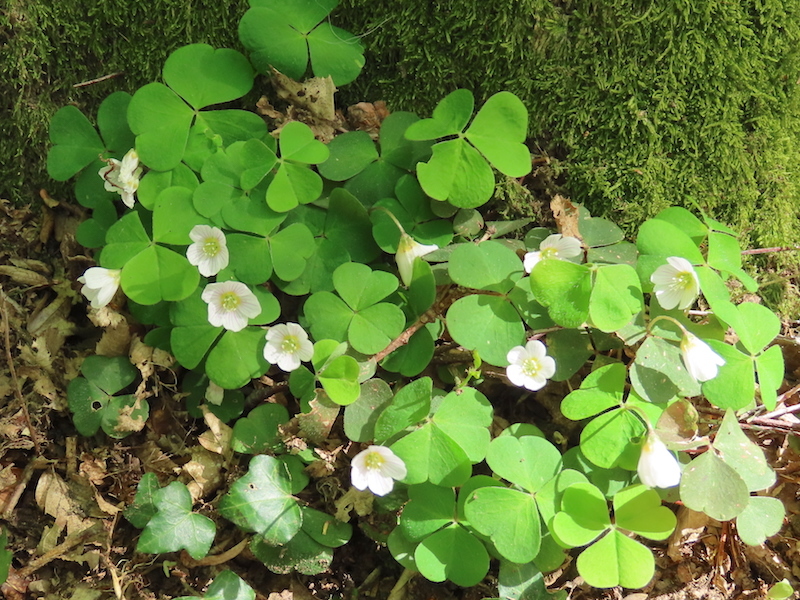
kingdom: Plantae
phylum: Tracheophyta
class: Magnoliopsida
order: Oxalidales
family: Oxalidaceae
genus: Oxalis
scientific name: Oxalis acetosella
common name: Wood-sorrel
